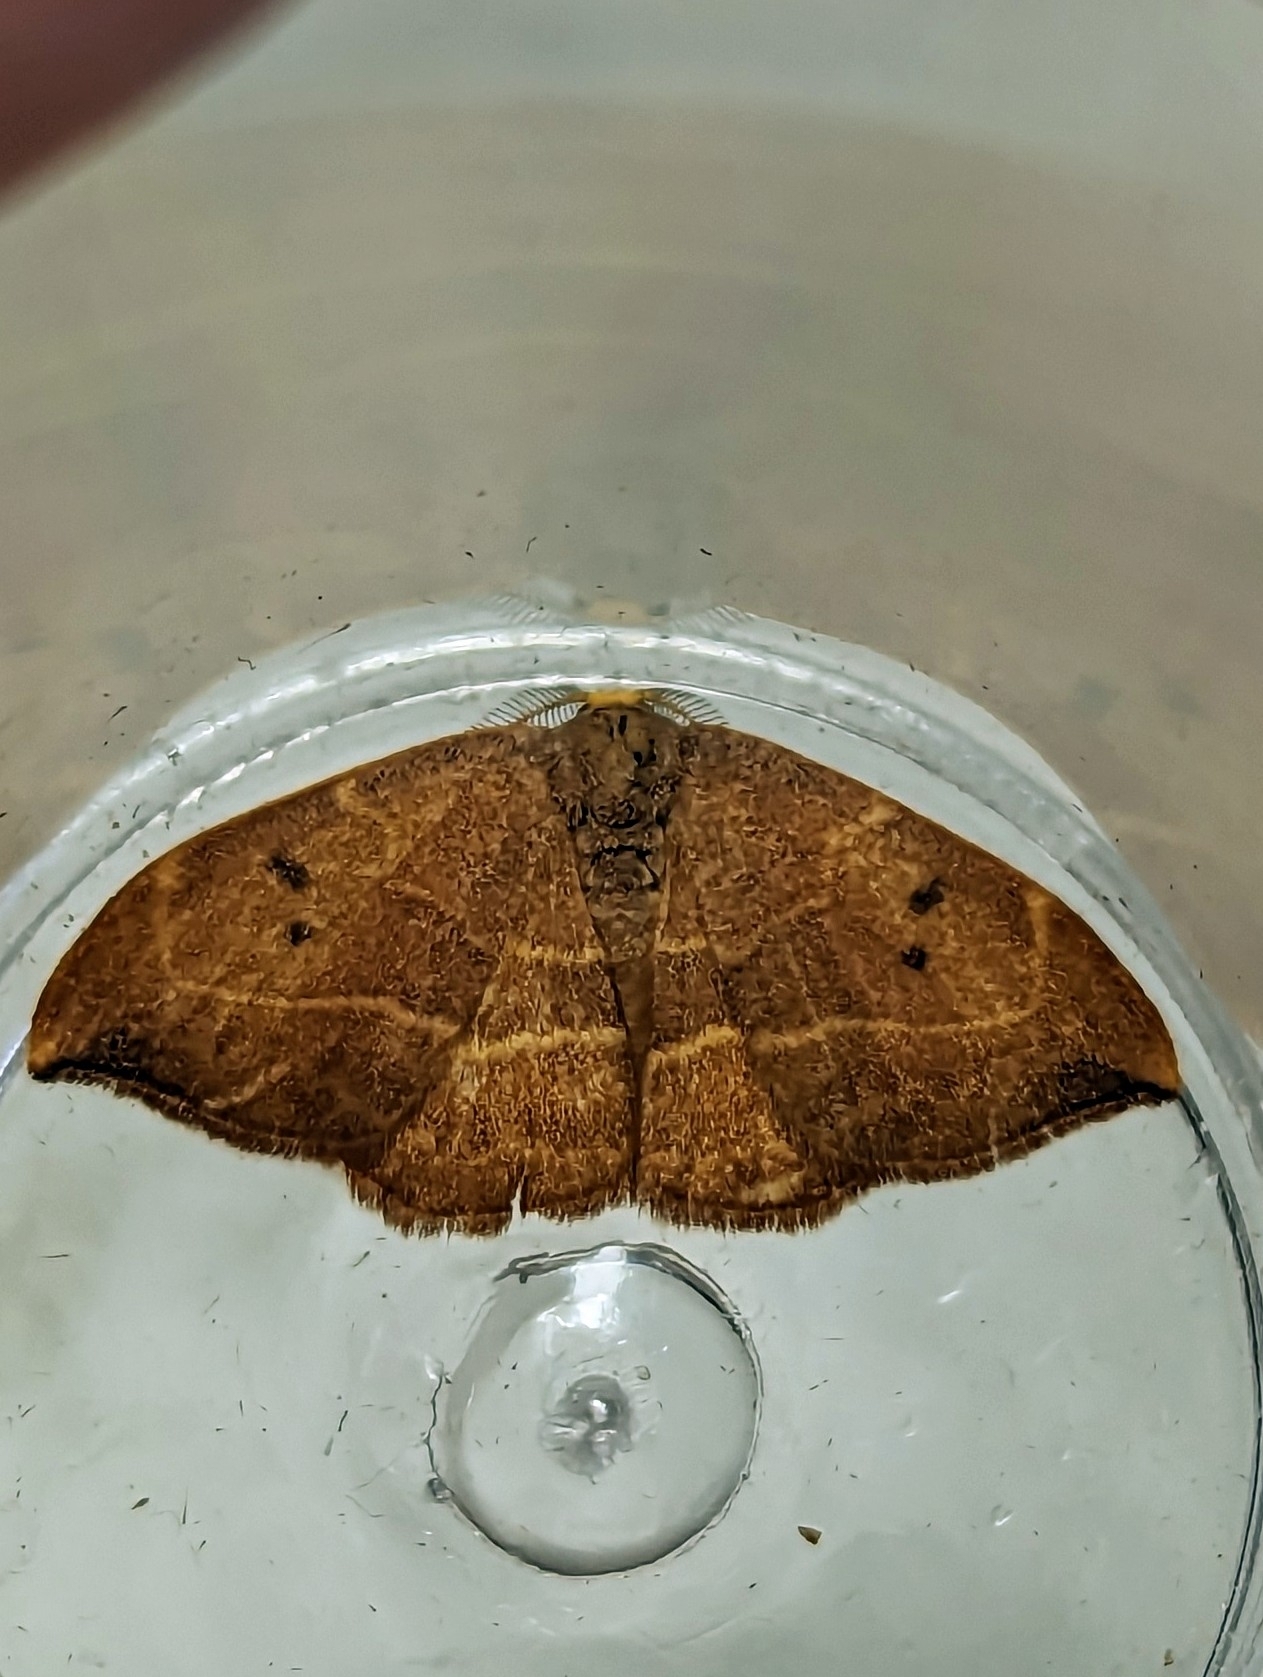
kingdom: Animalia
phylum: Arthropoda
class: Insecta
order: Lepidoptera
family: Drepanidae
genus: Watsonalla
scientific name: Watsonalla binaria
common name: Oak hook-tip
